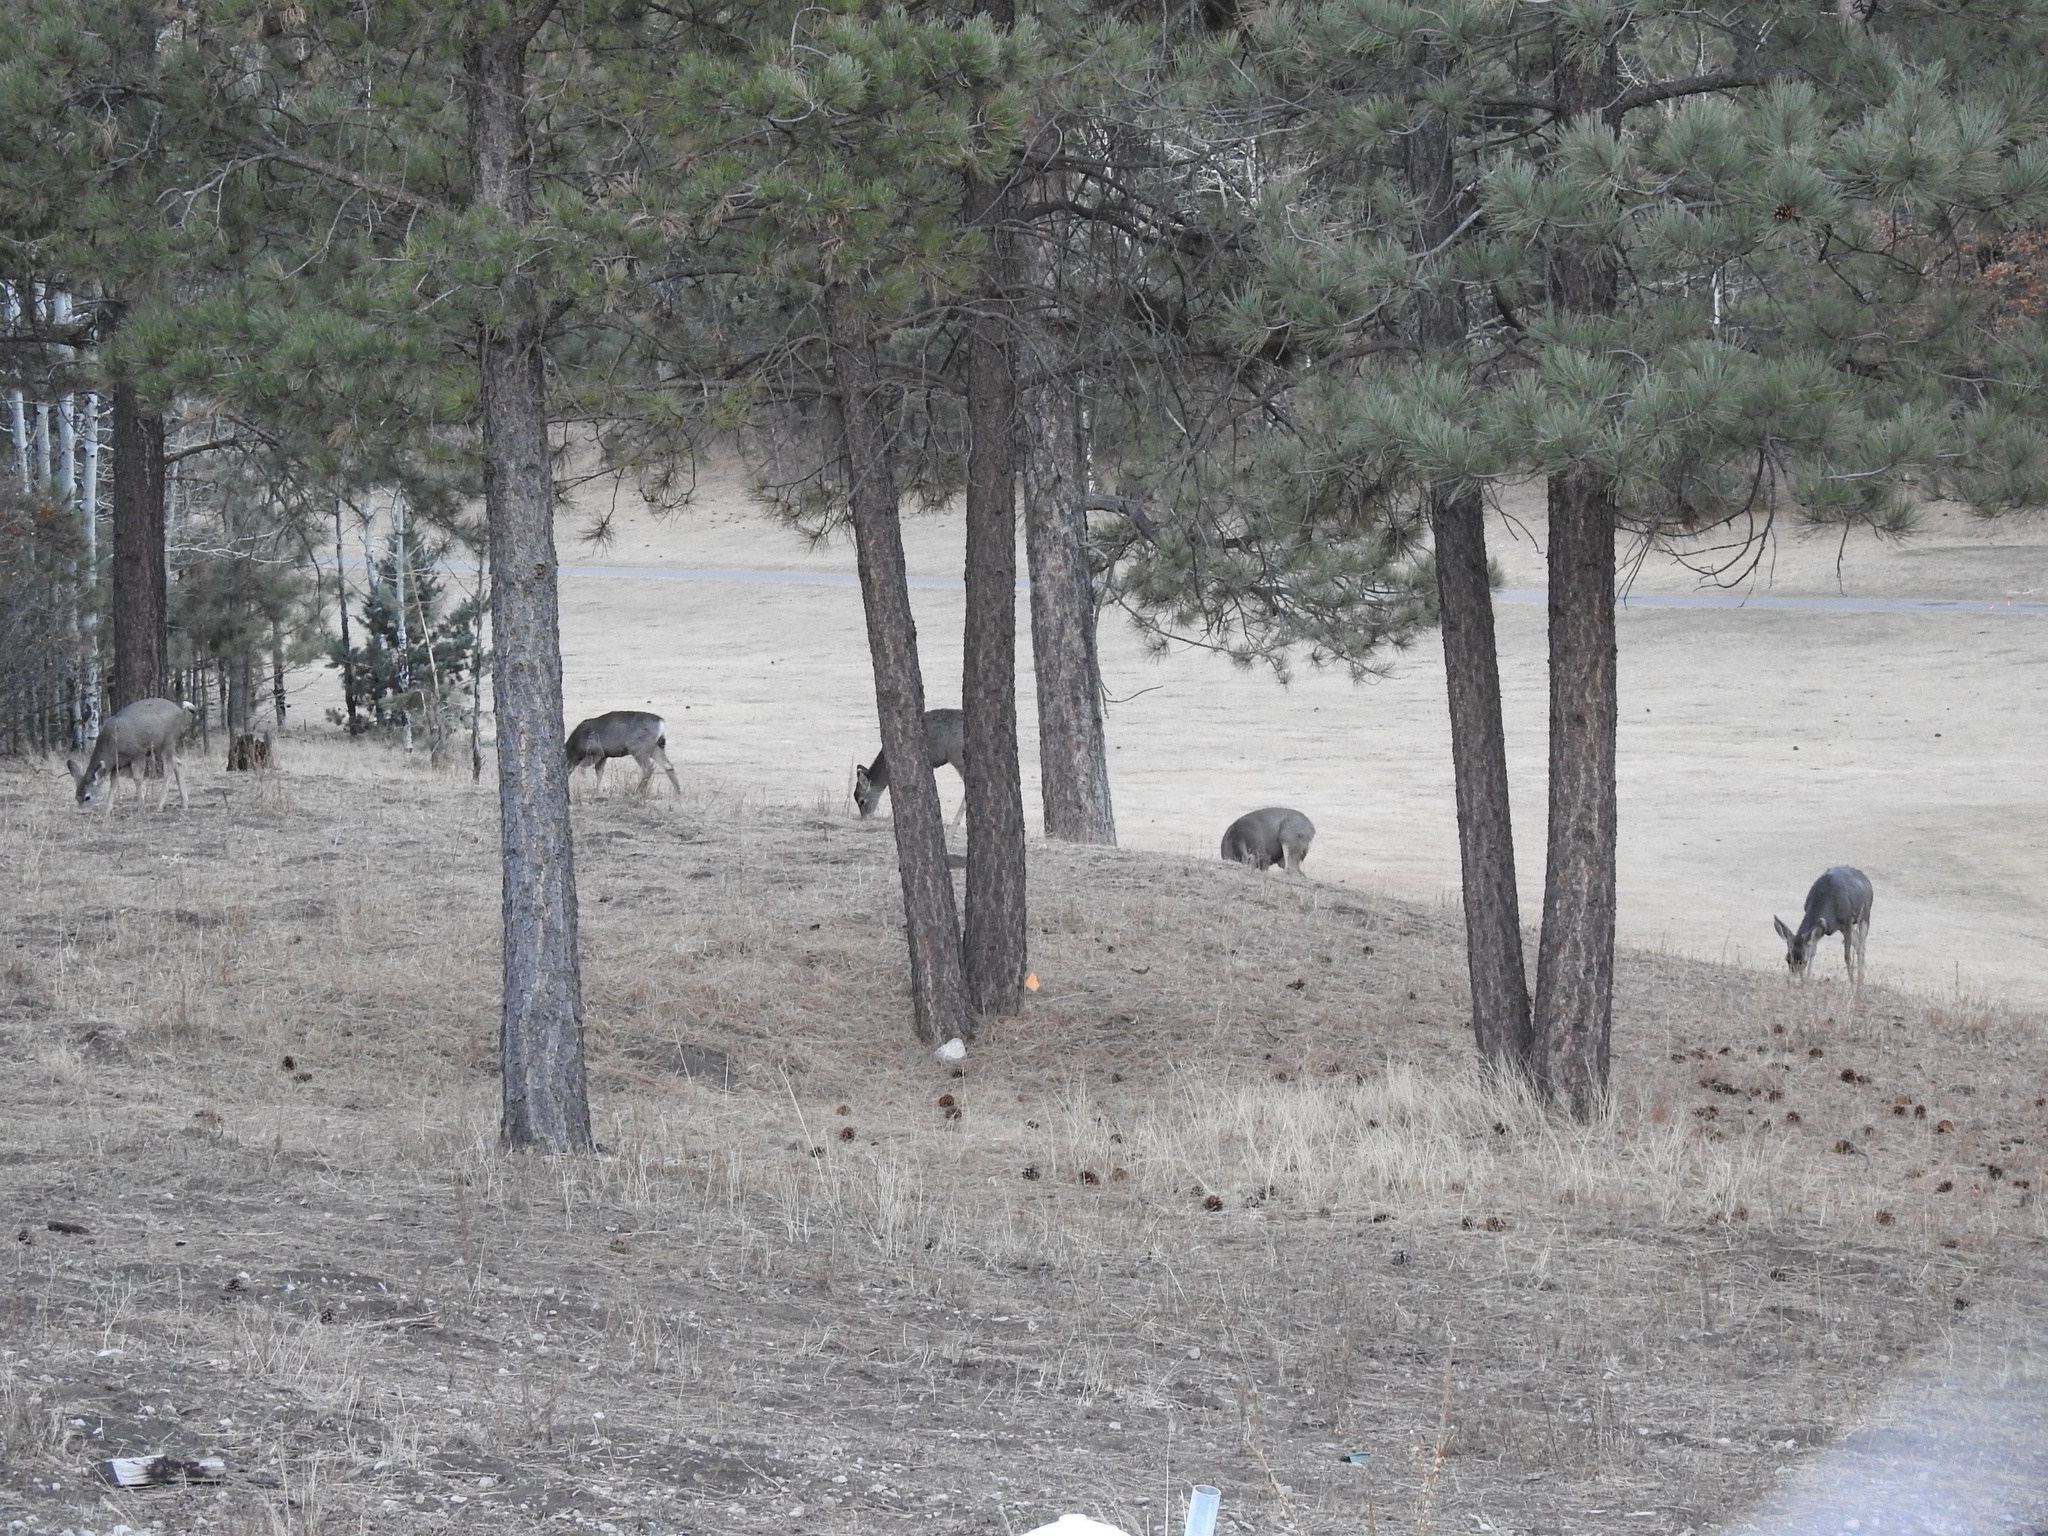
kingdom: Animalia
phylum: Chordata
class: Mammalia
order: Artiodactyla
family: Cervidae
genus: Odocoileus
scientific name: Odocoileus hemionus
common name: Mule deer
